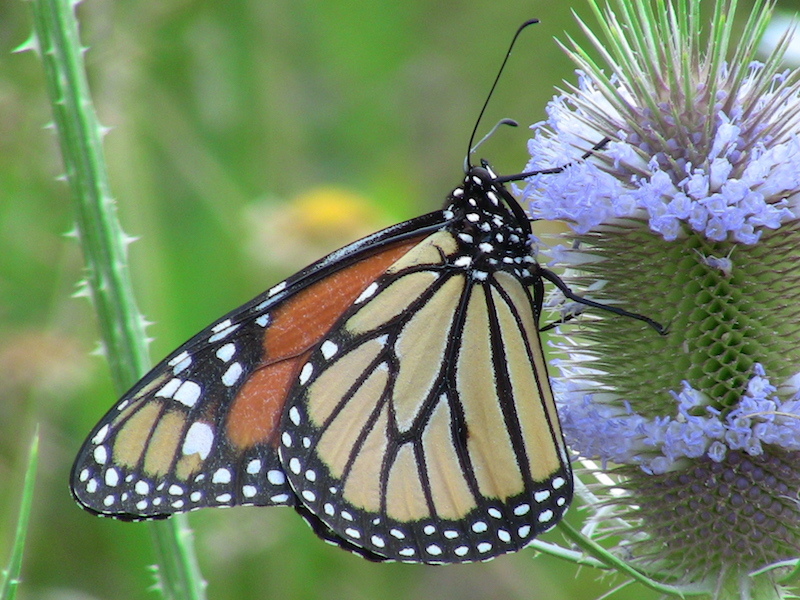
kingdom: Animalia
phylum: Arthropoda
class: Insecta
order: Lepidoptera
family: Nymphalidae
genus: Danaus
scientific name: Danaus plexippus
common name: Monarch
